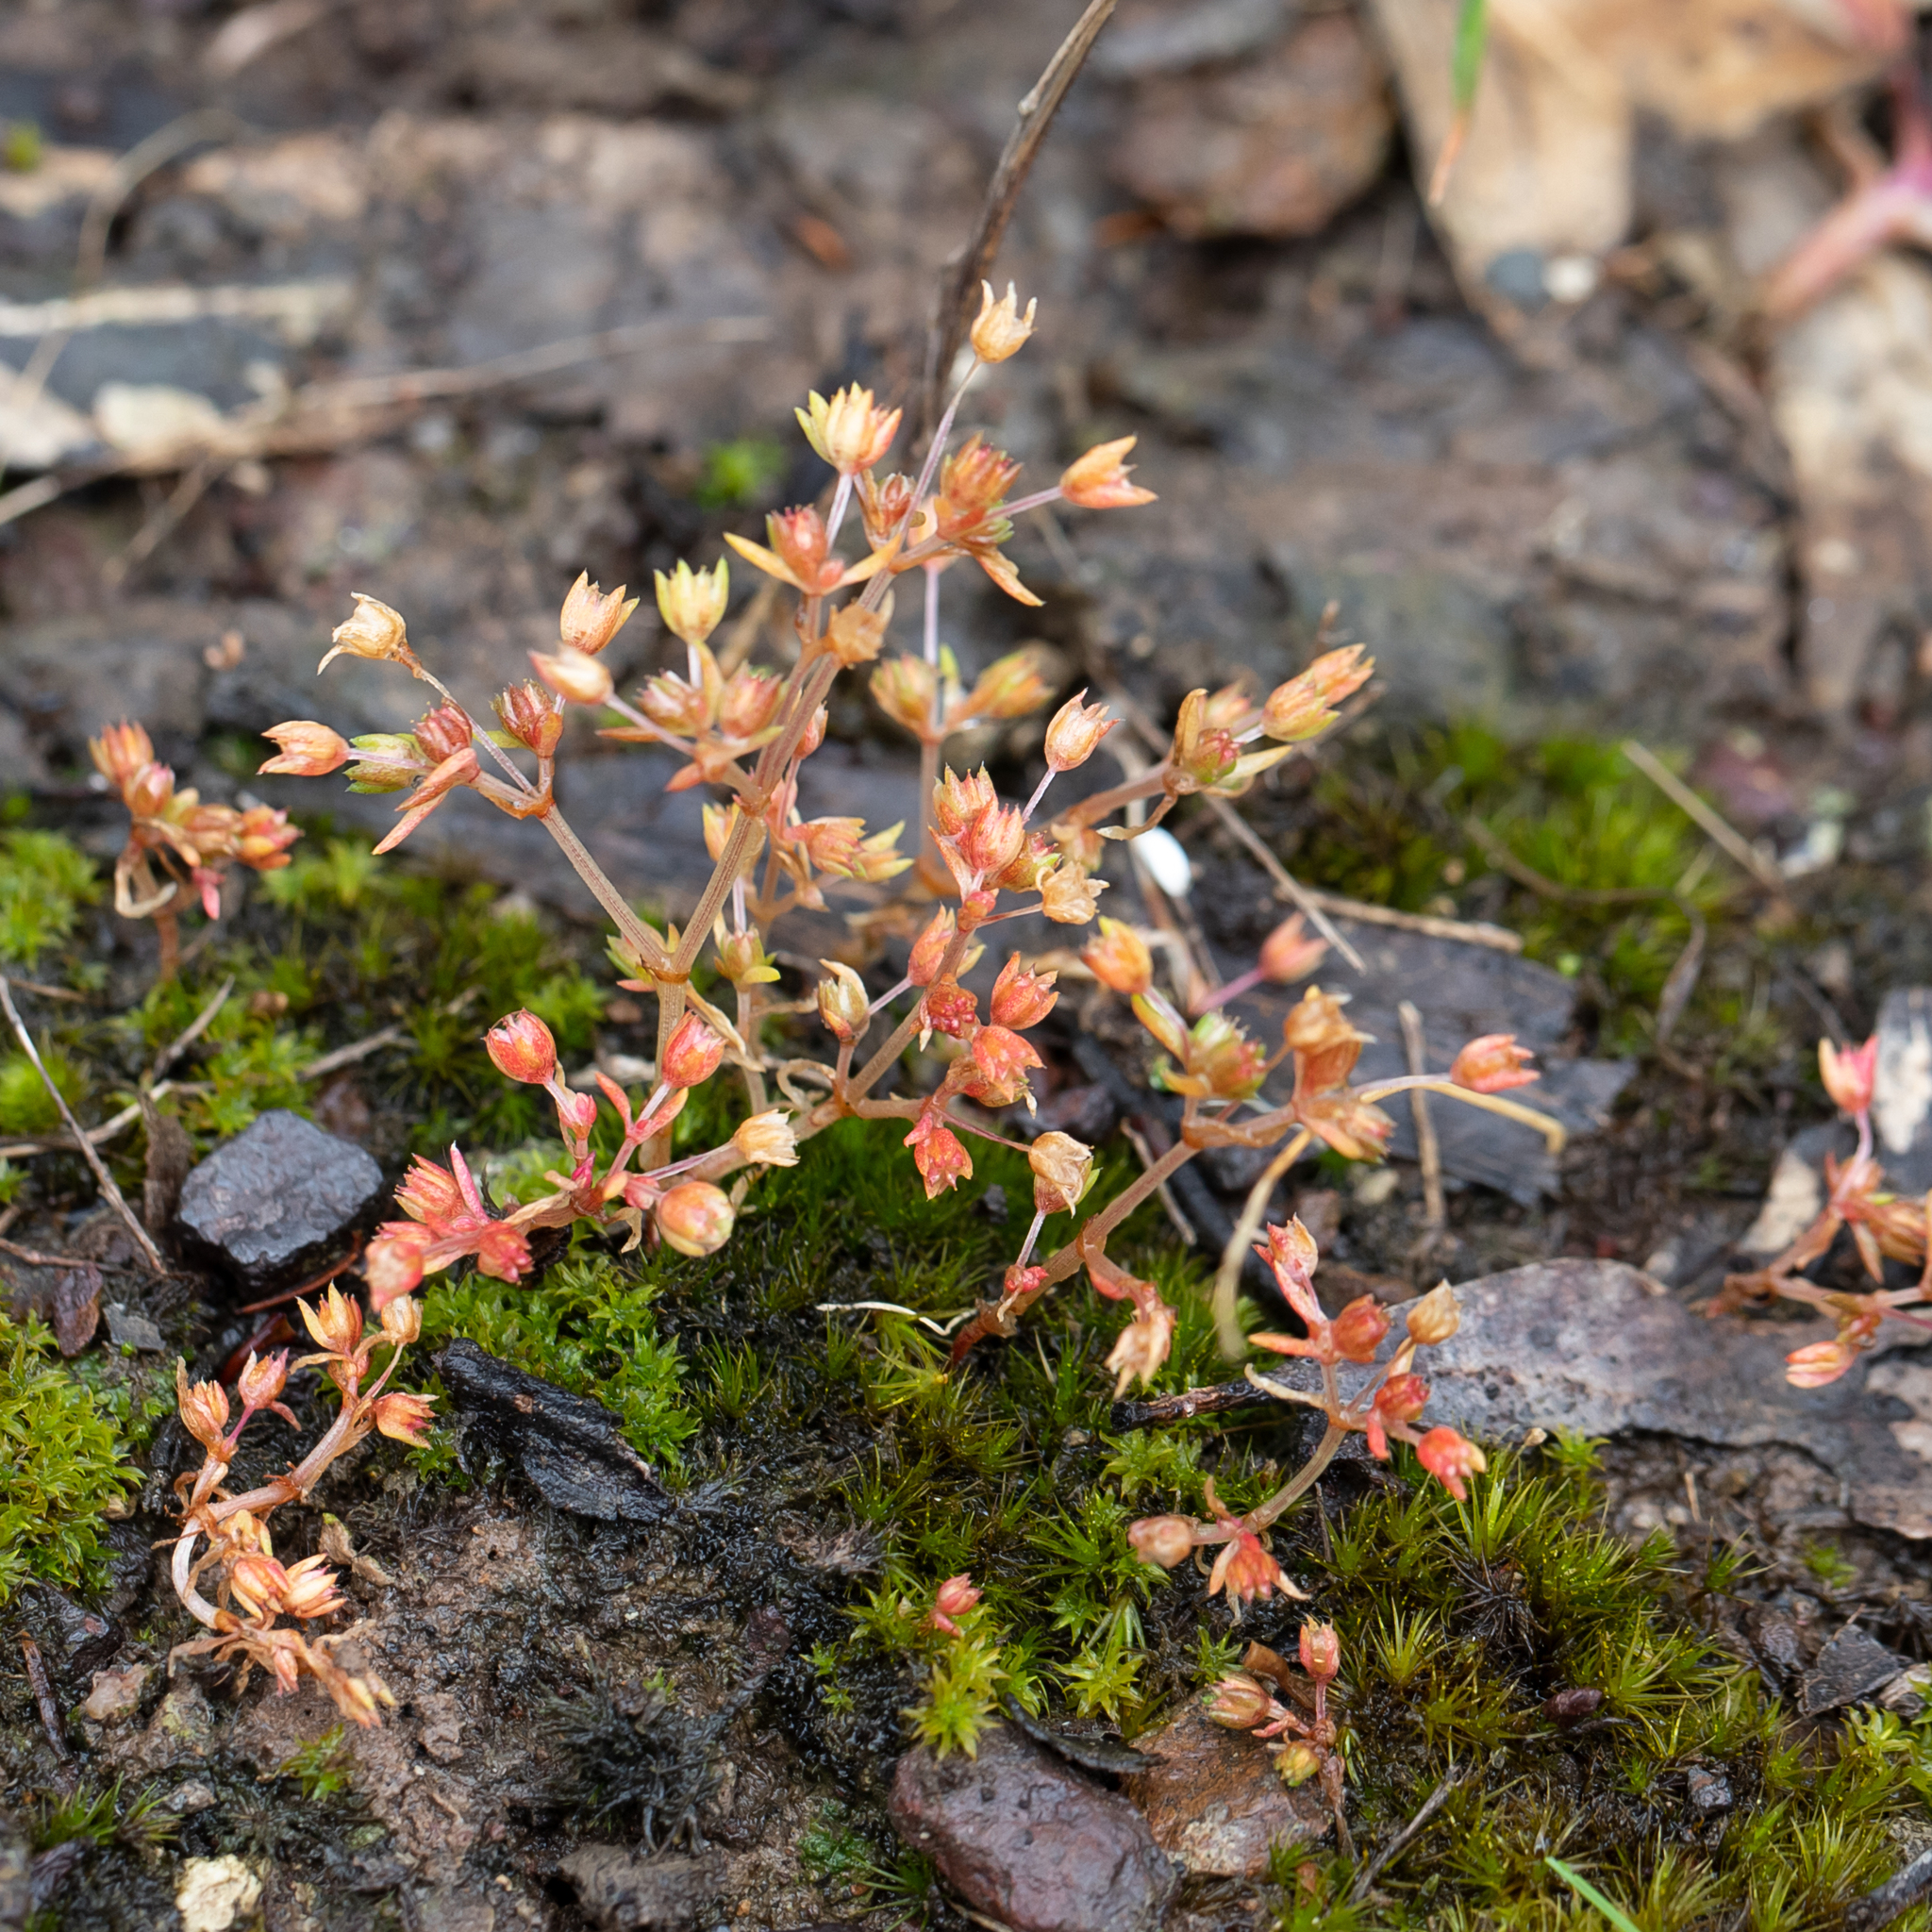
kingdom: Plantae
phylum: Tracheophyta
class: Magnoliopsida
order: Saxifragales
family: Crassulaceae
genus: Crassula
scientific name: Crassula decumbens
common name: Scilly pigmyweed
